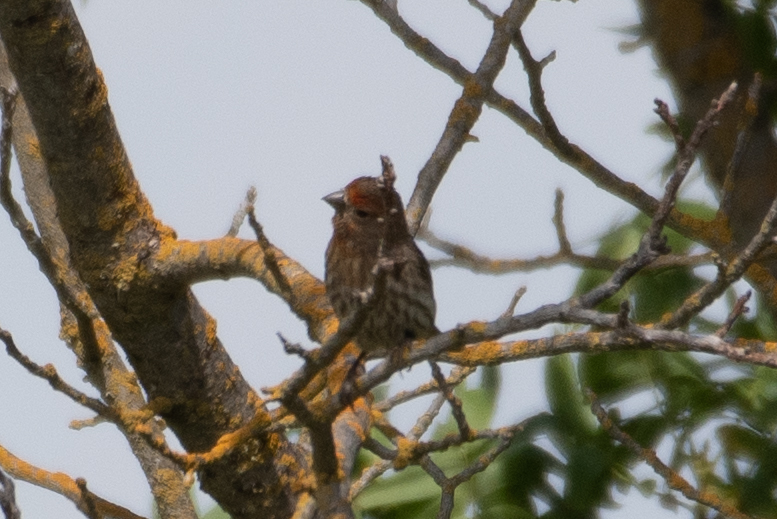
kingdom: Animalia
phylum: Chordata
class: Aves
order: Passeriformes
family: Fringillidae
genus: Haemorhous
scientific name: Haemorhous mexicanus
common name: House finch
